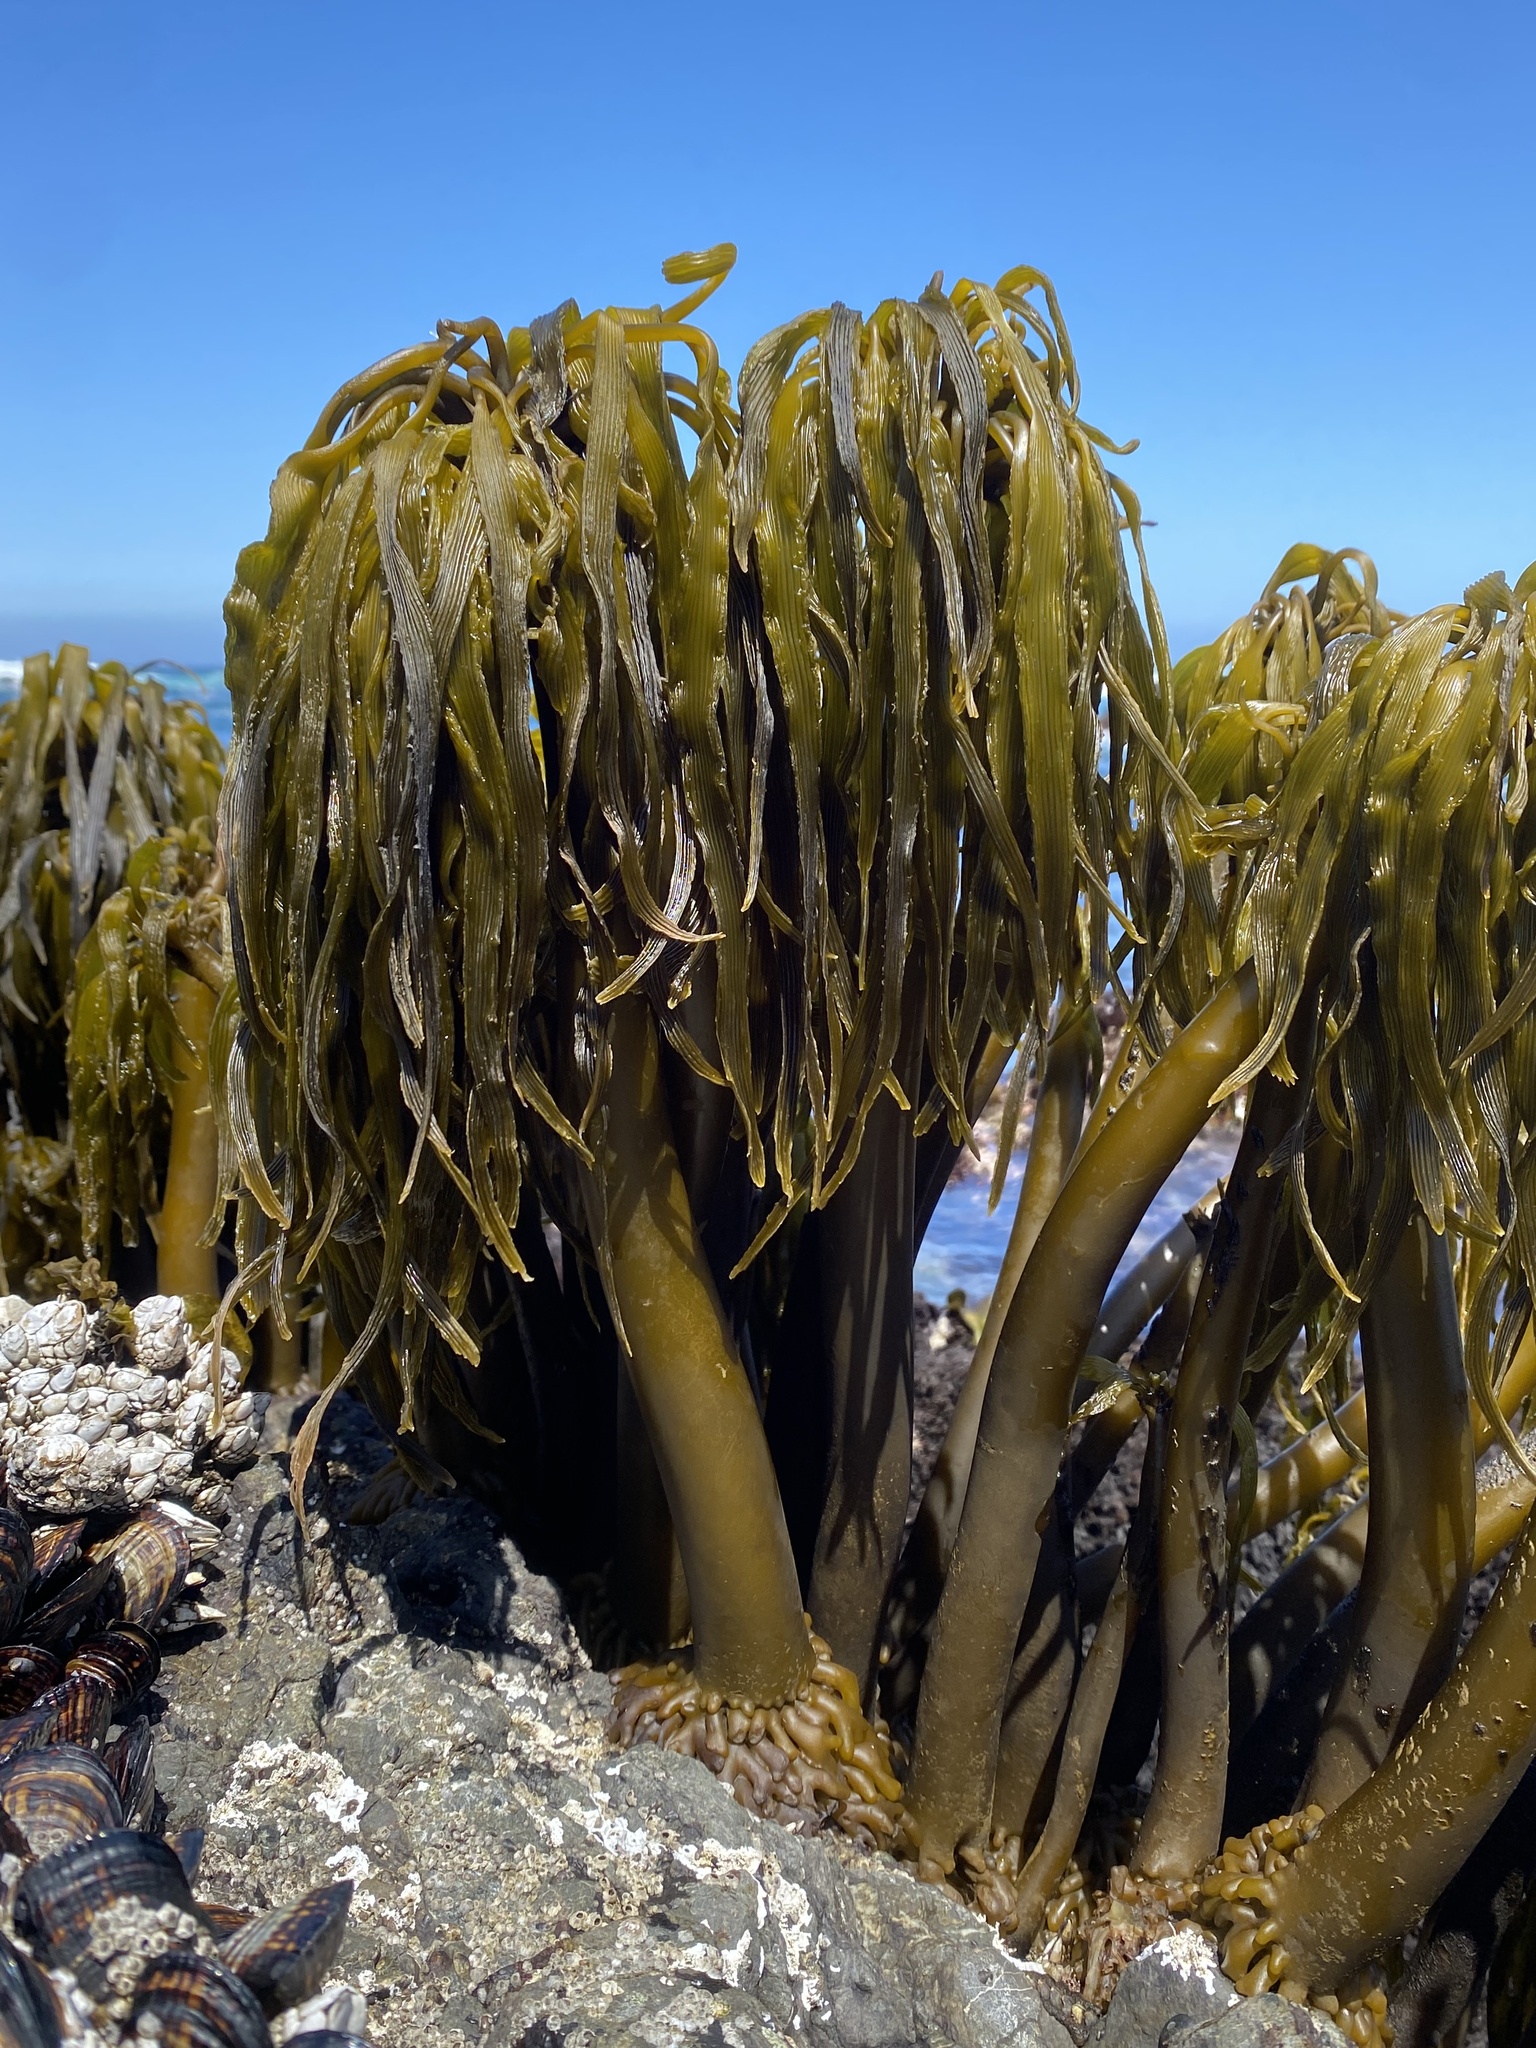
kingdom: Chromista
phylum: Ochrophyta
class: Phaeophyceae
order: Laminariales
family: Laminariaceae
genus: Postelsia
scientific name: Postelsia palmiformis
